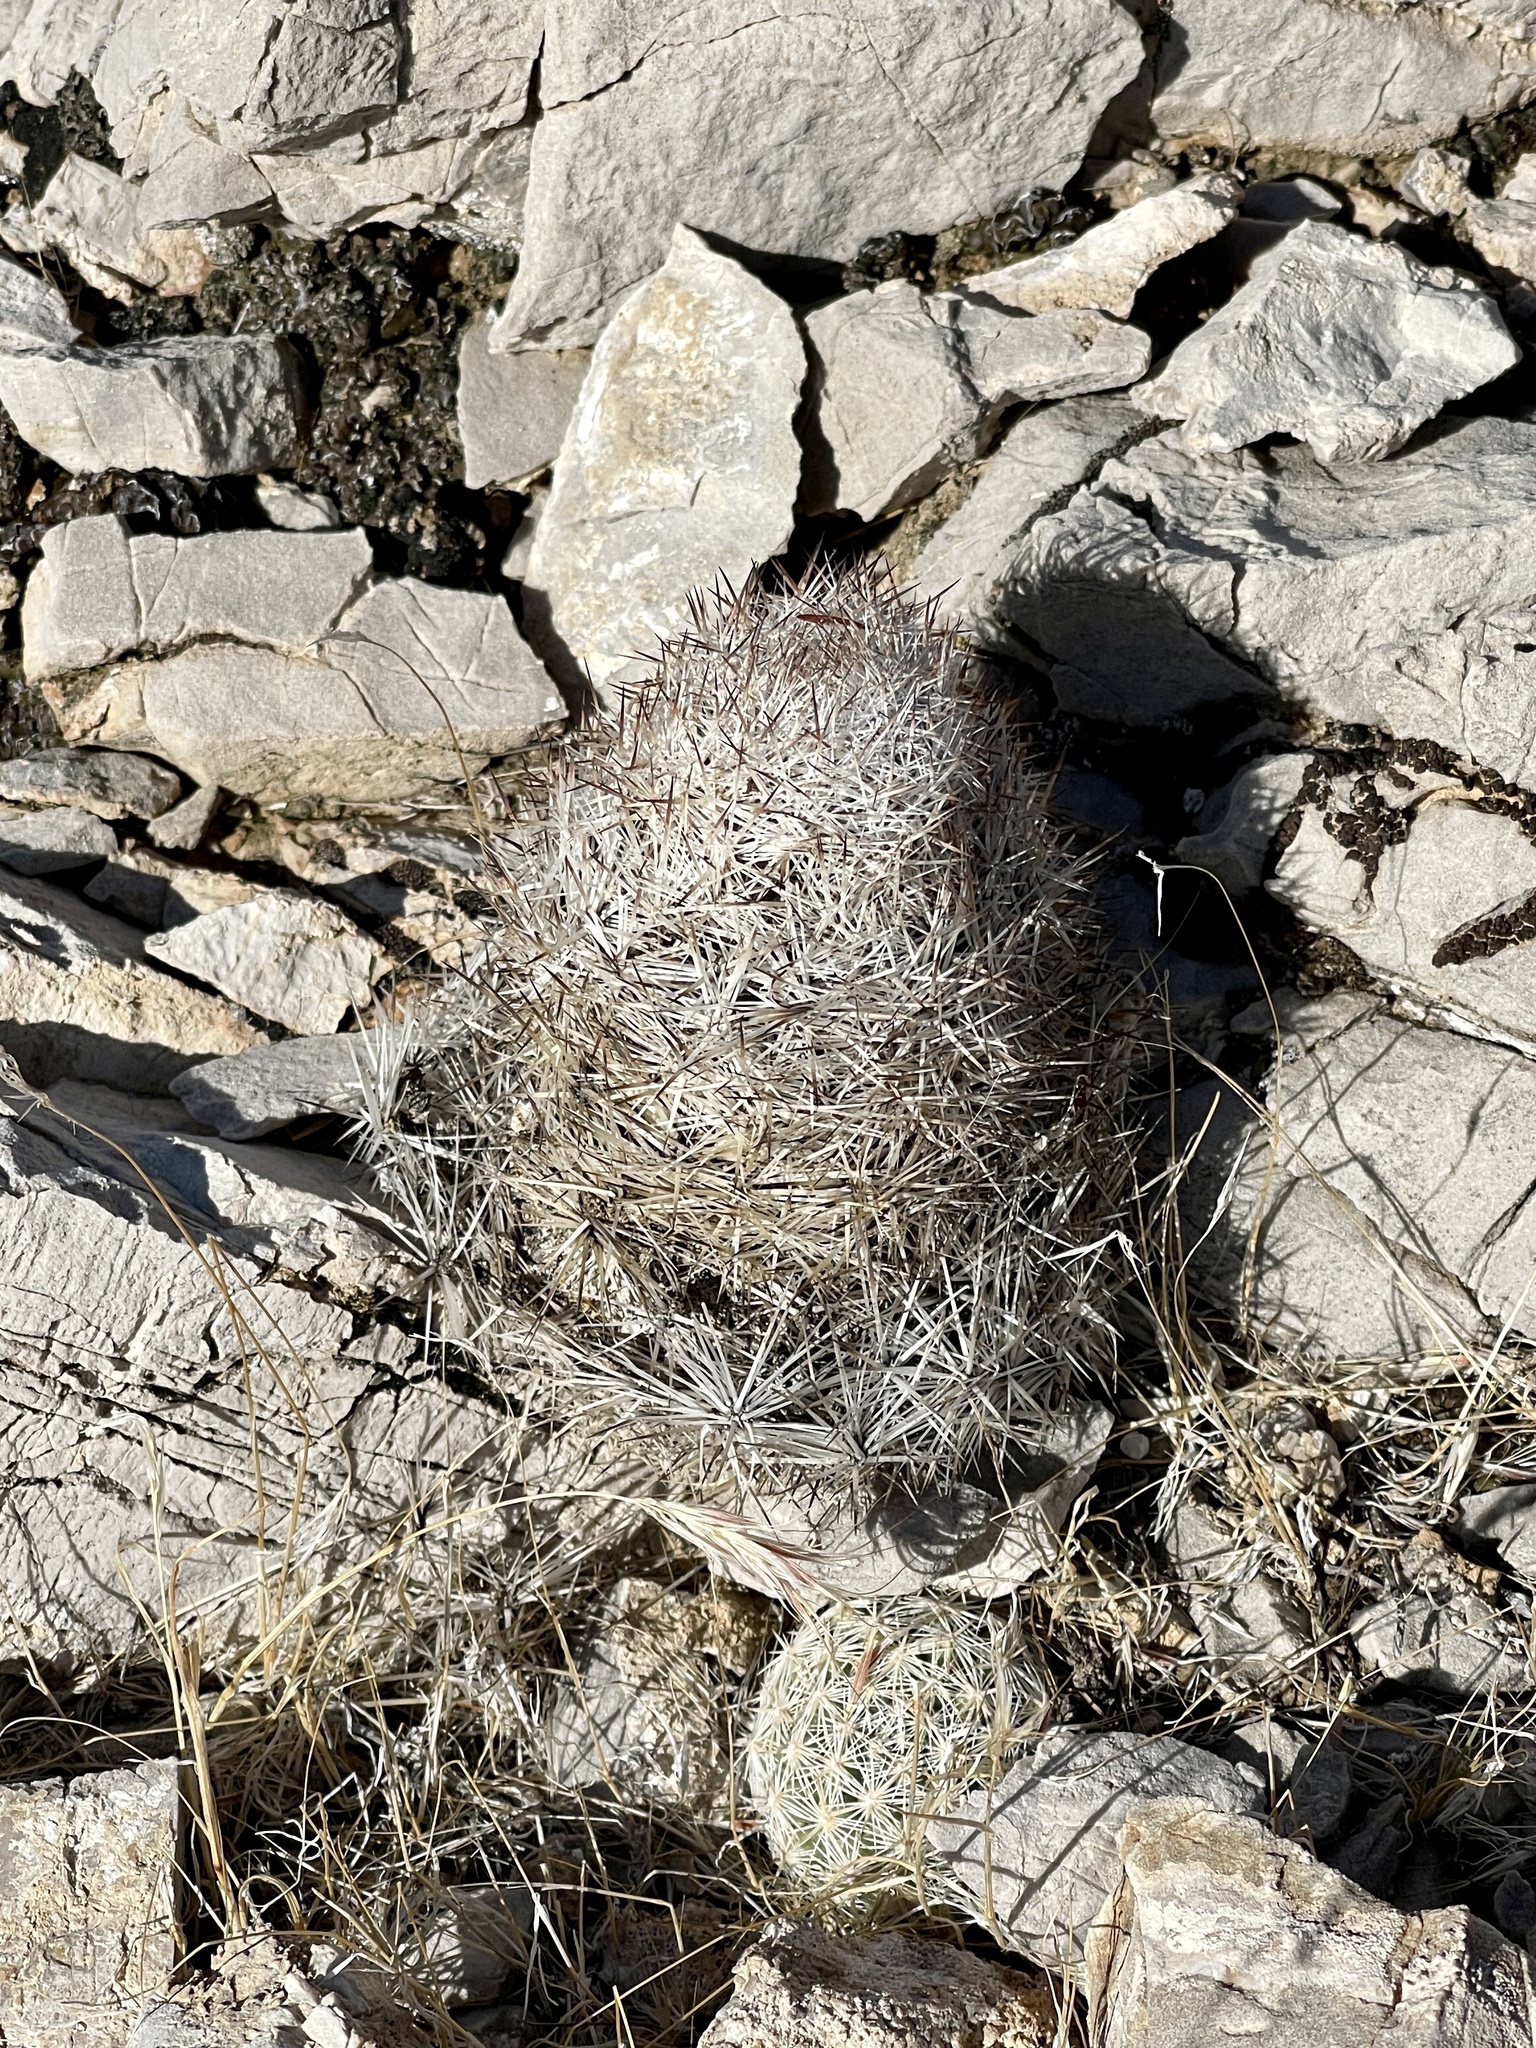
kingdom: Plantae
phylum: Tracheophyta
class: Magnoliopsida
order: Caryophyllales
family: Cactaceae
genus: Pelecyphora
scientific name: Pelecyphora dasyacantha
